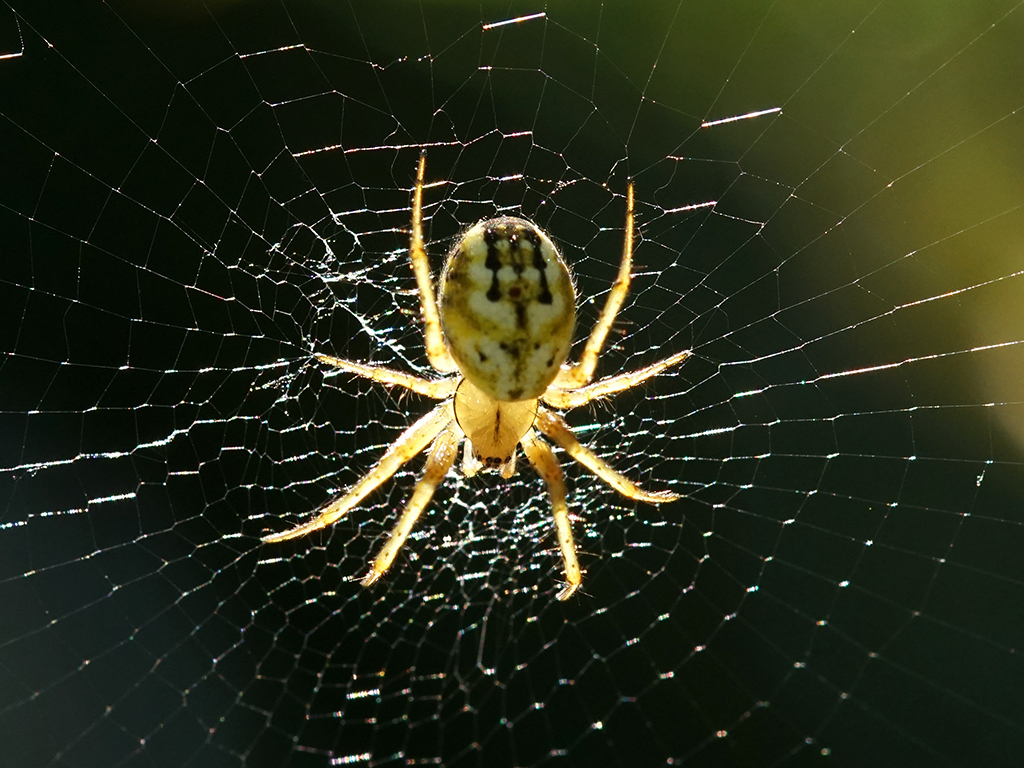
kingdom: Animalia
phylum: Arthropoda
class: Arachnida
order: Araneae
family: Araneidae
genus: Mangora
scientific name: Mangora acalypha
